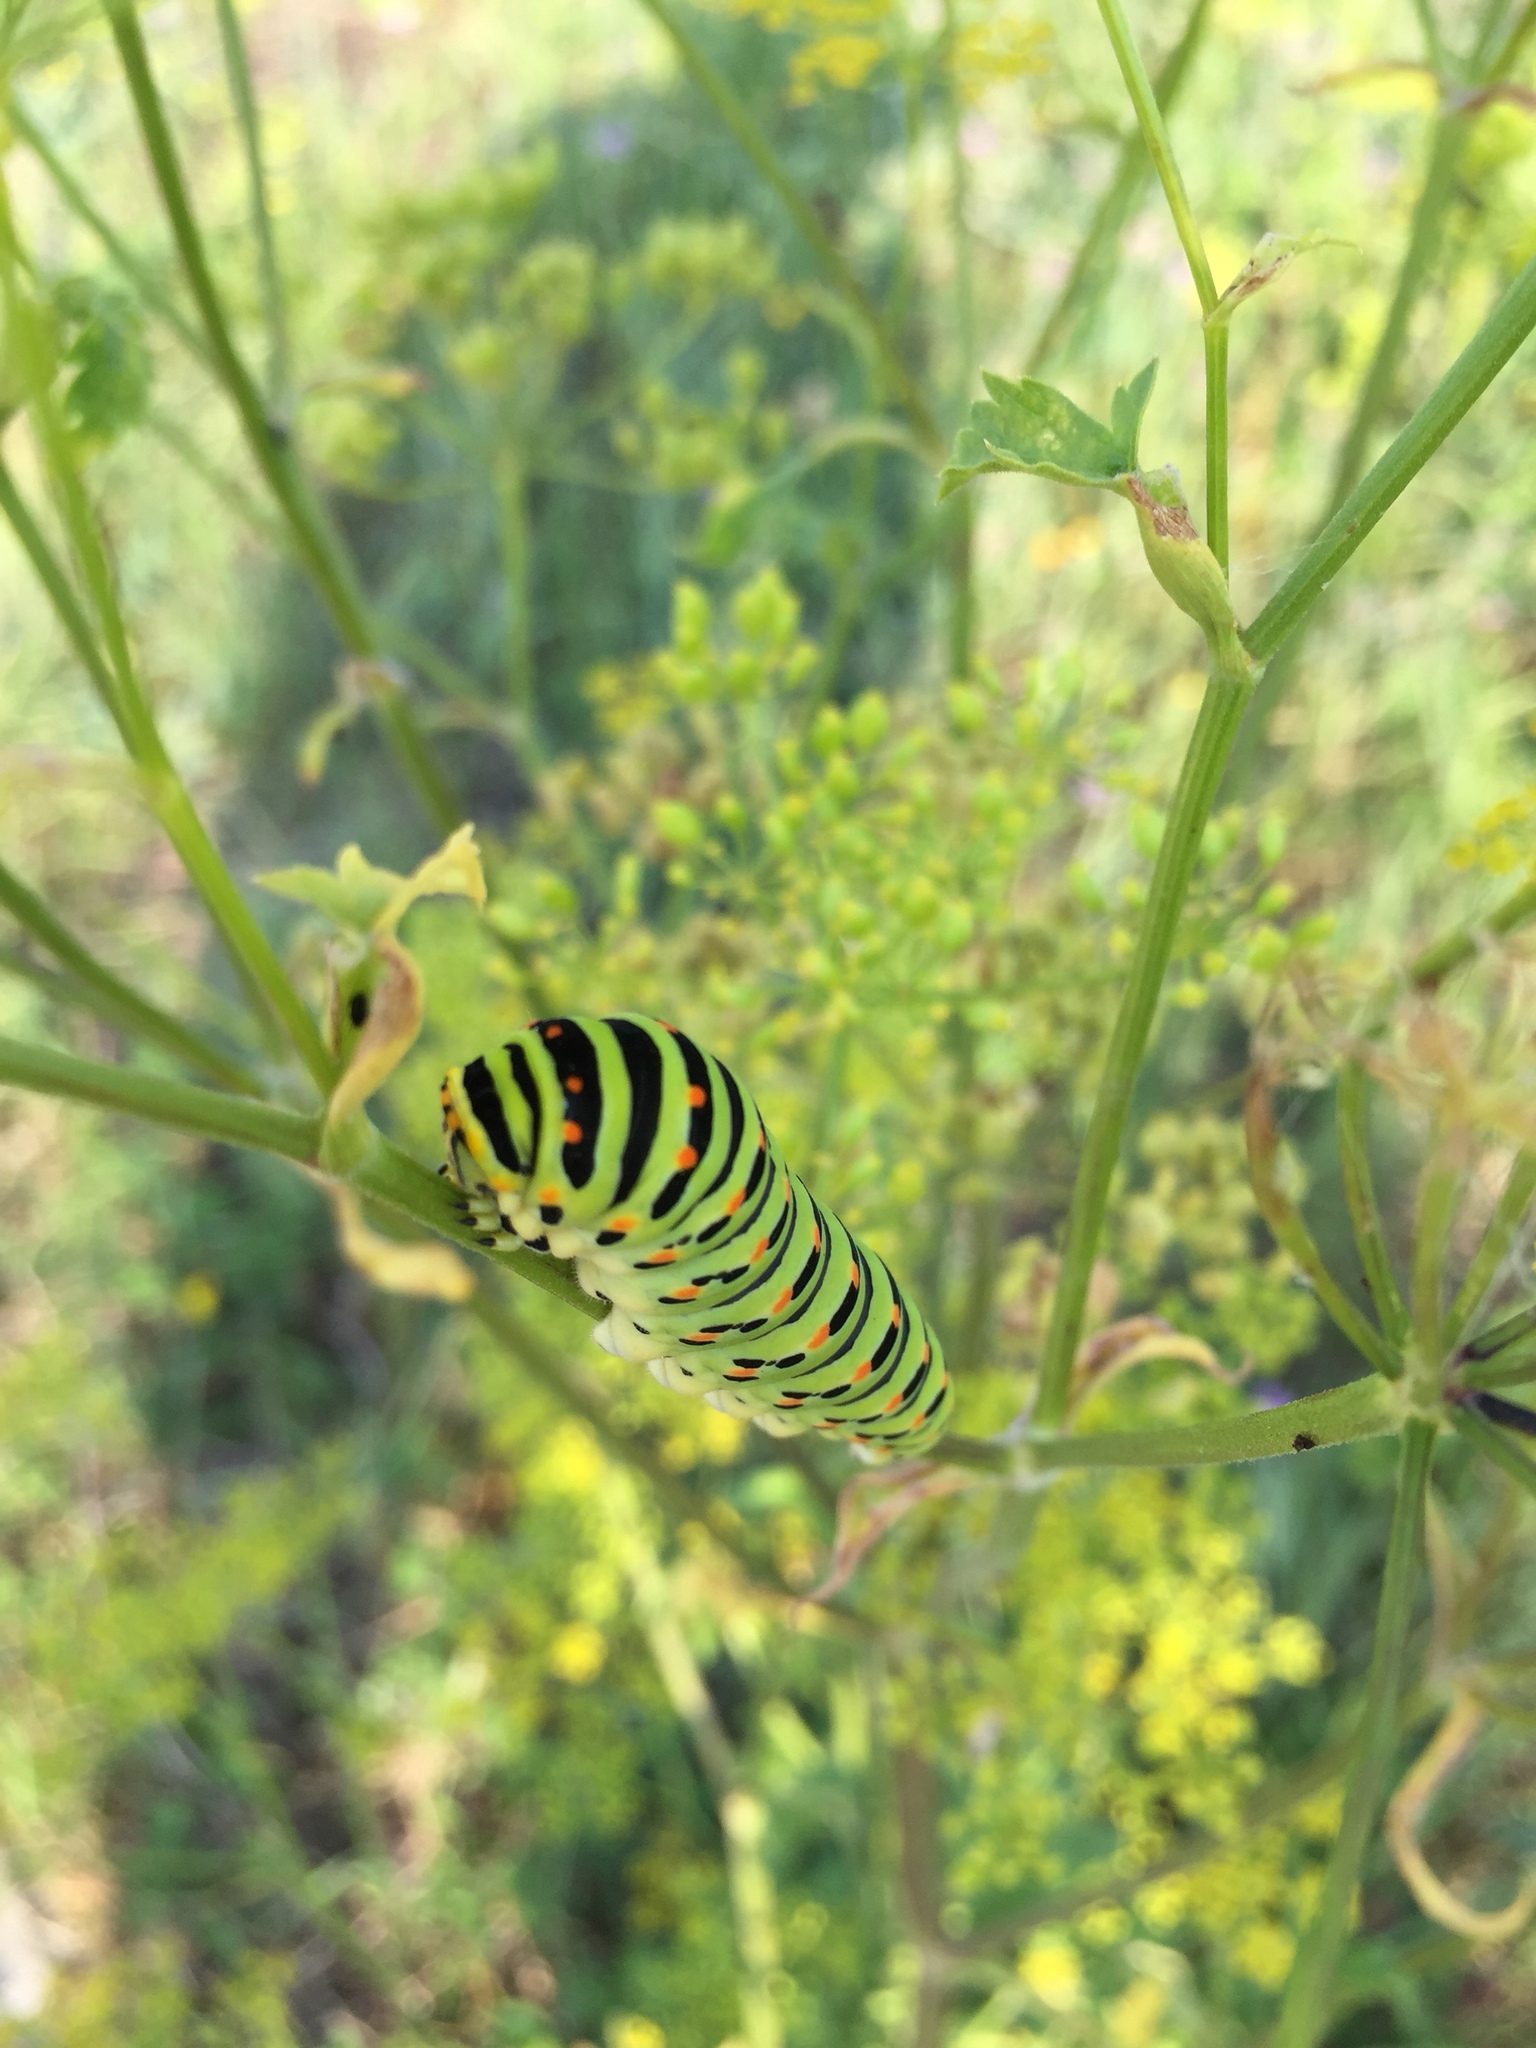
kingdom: Animalia
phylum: Arthropoda
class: Insecta
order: Lepidoptera
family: Papilionidae
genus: Papilio
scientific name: Papilio machaon
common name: Swallowtail
